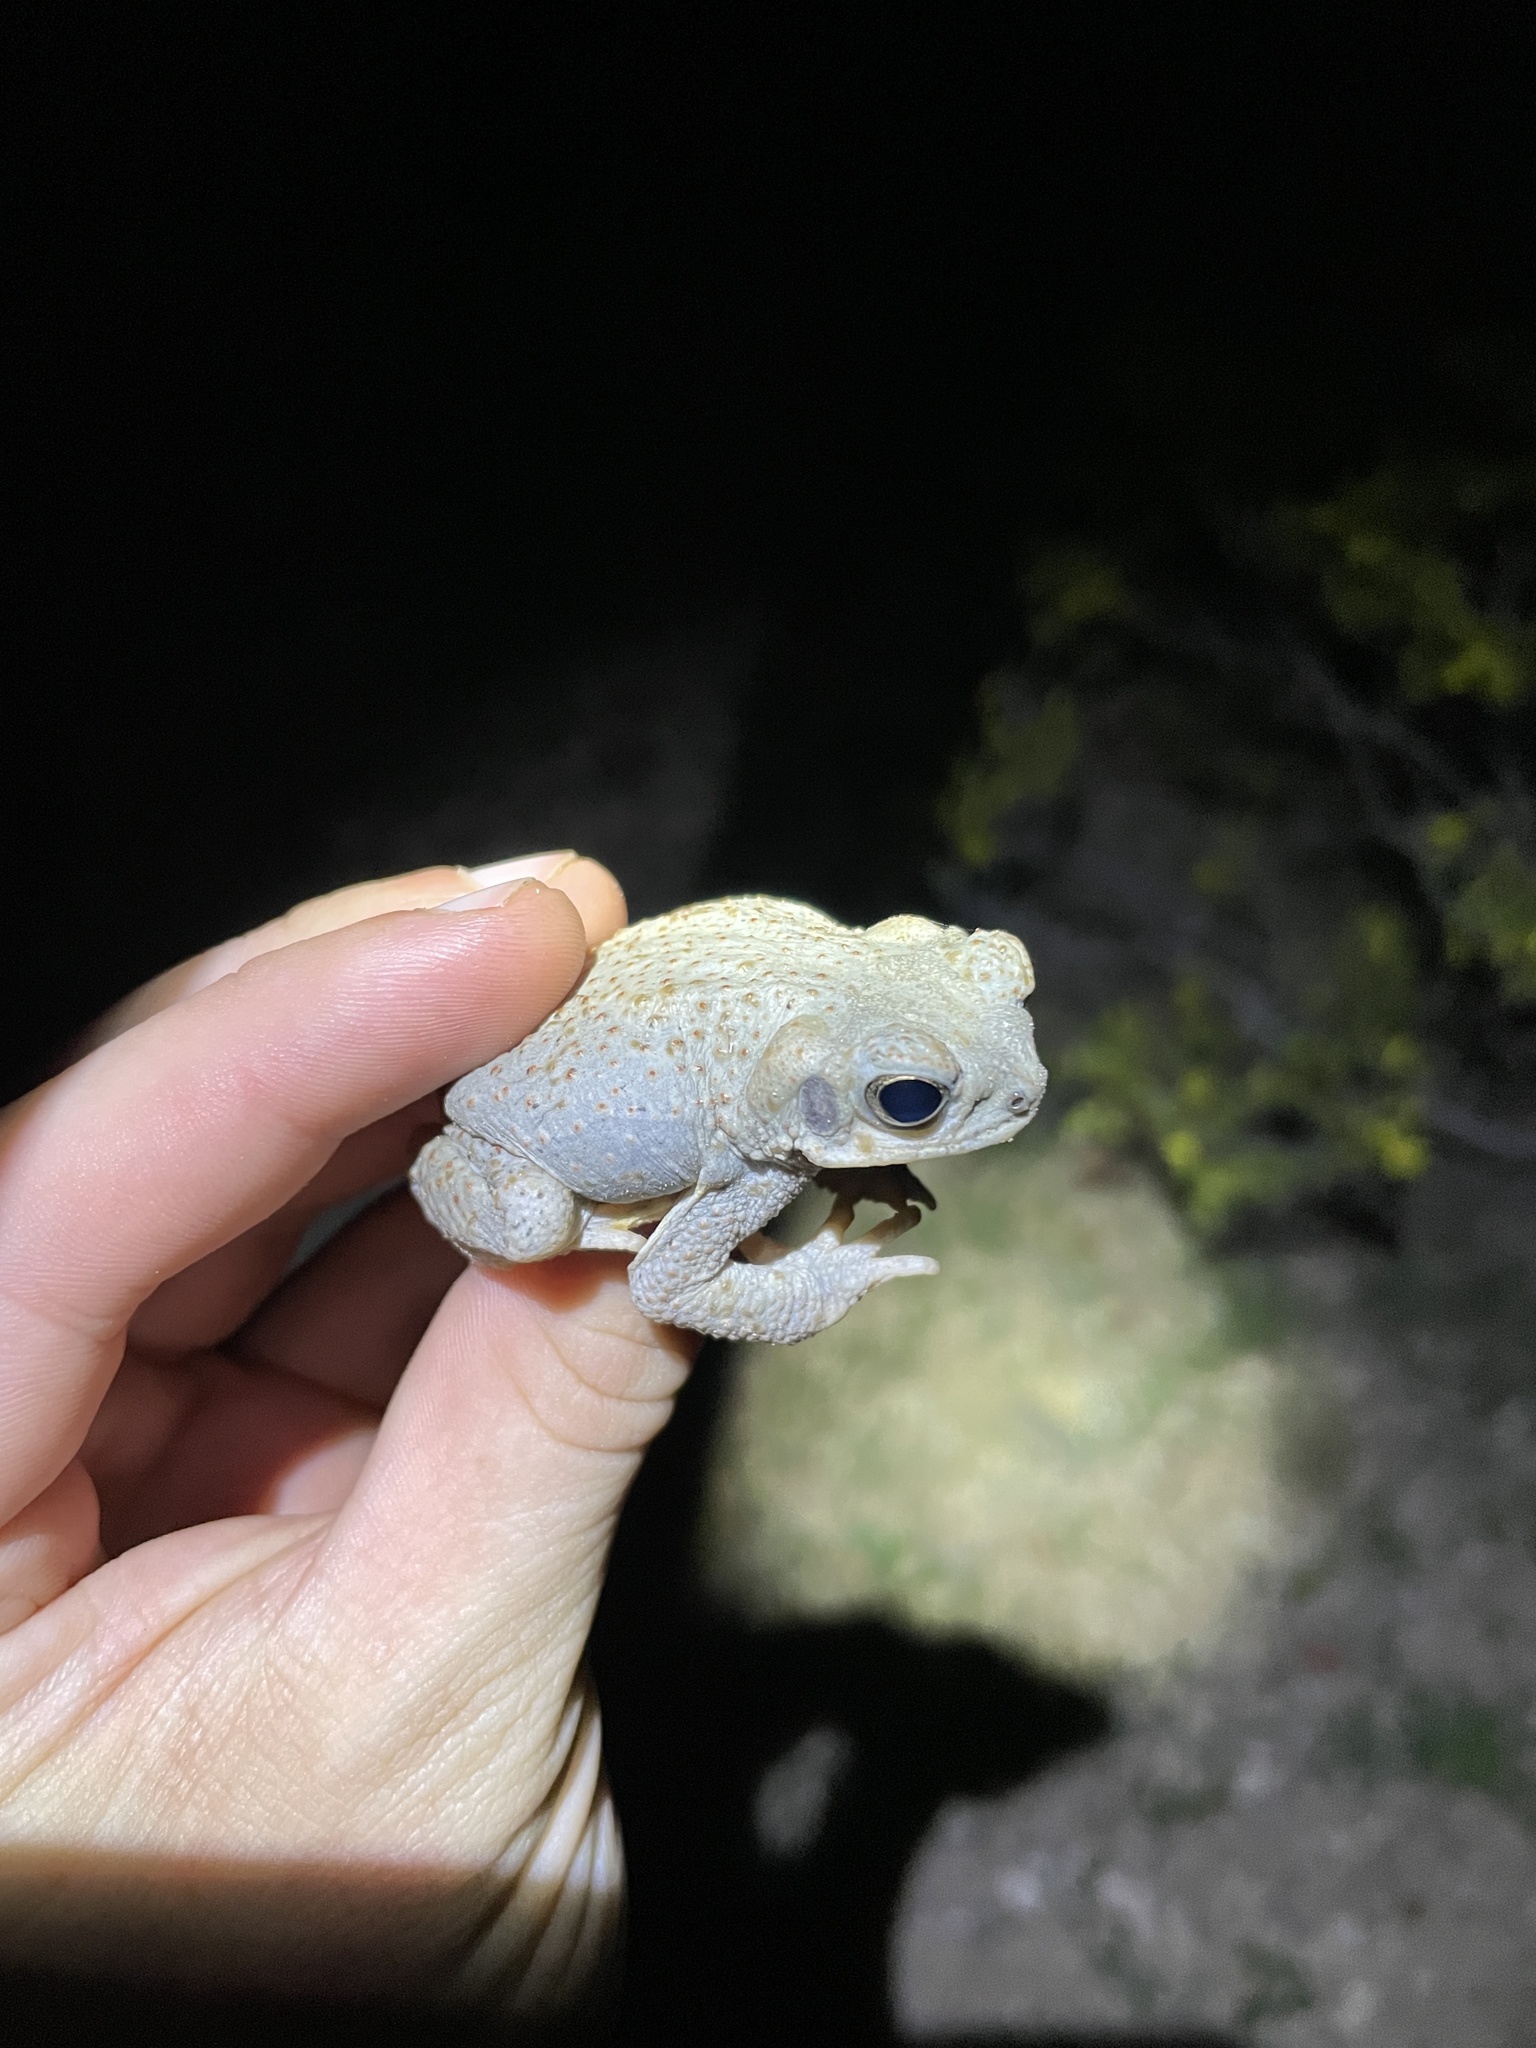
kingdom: Animalia
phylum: Chordata
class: Amphibia
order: Anura
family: Bufonidae
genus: Anaxyrus
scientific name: Anaxyrus punctatus
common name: Red-spotted toad
